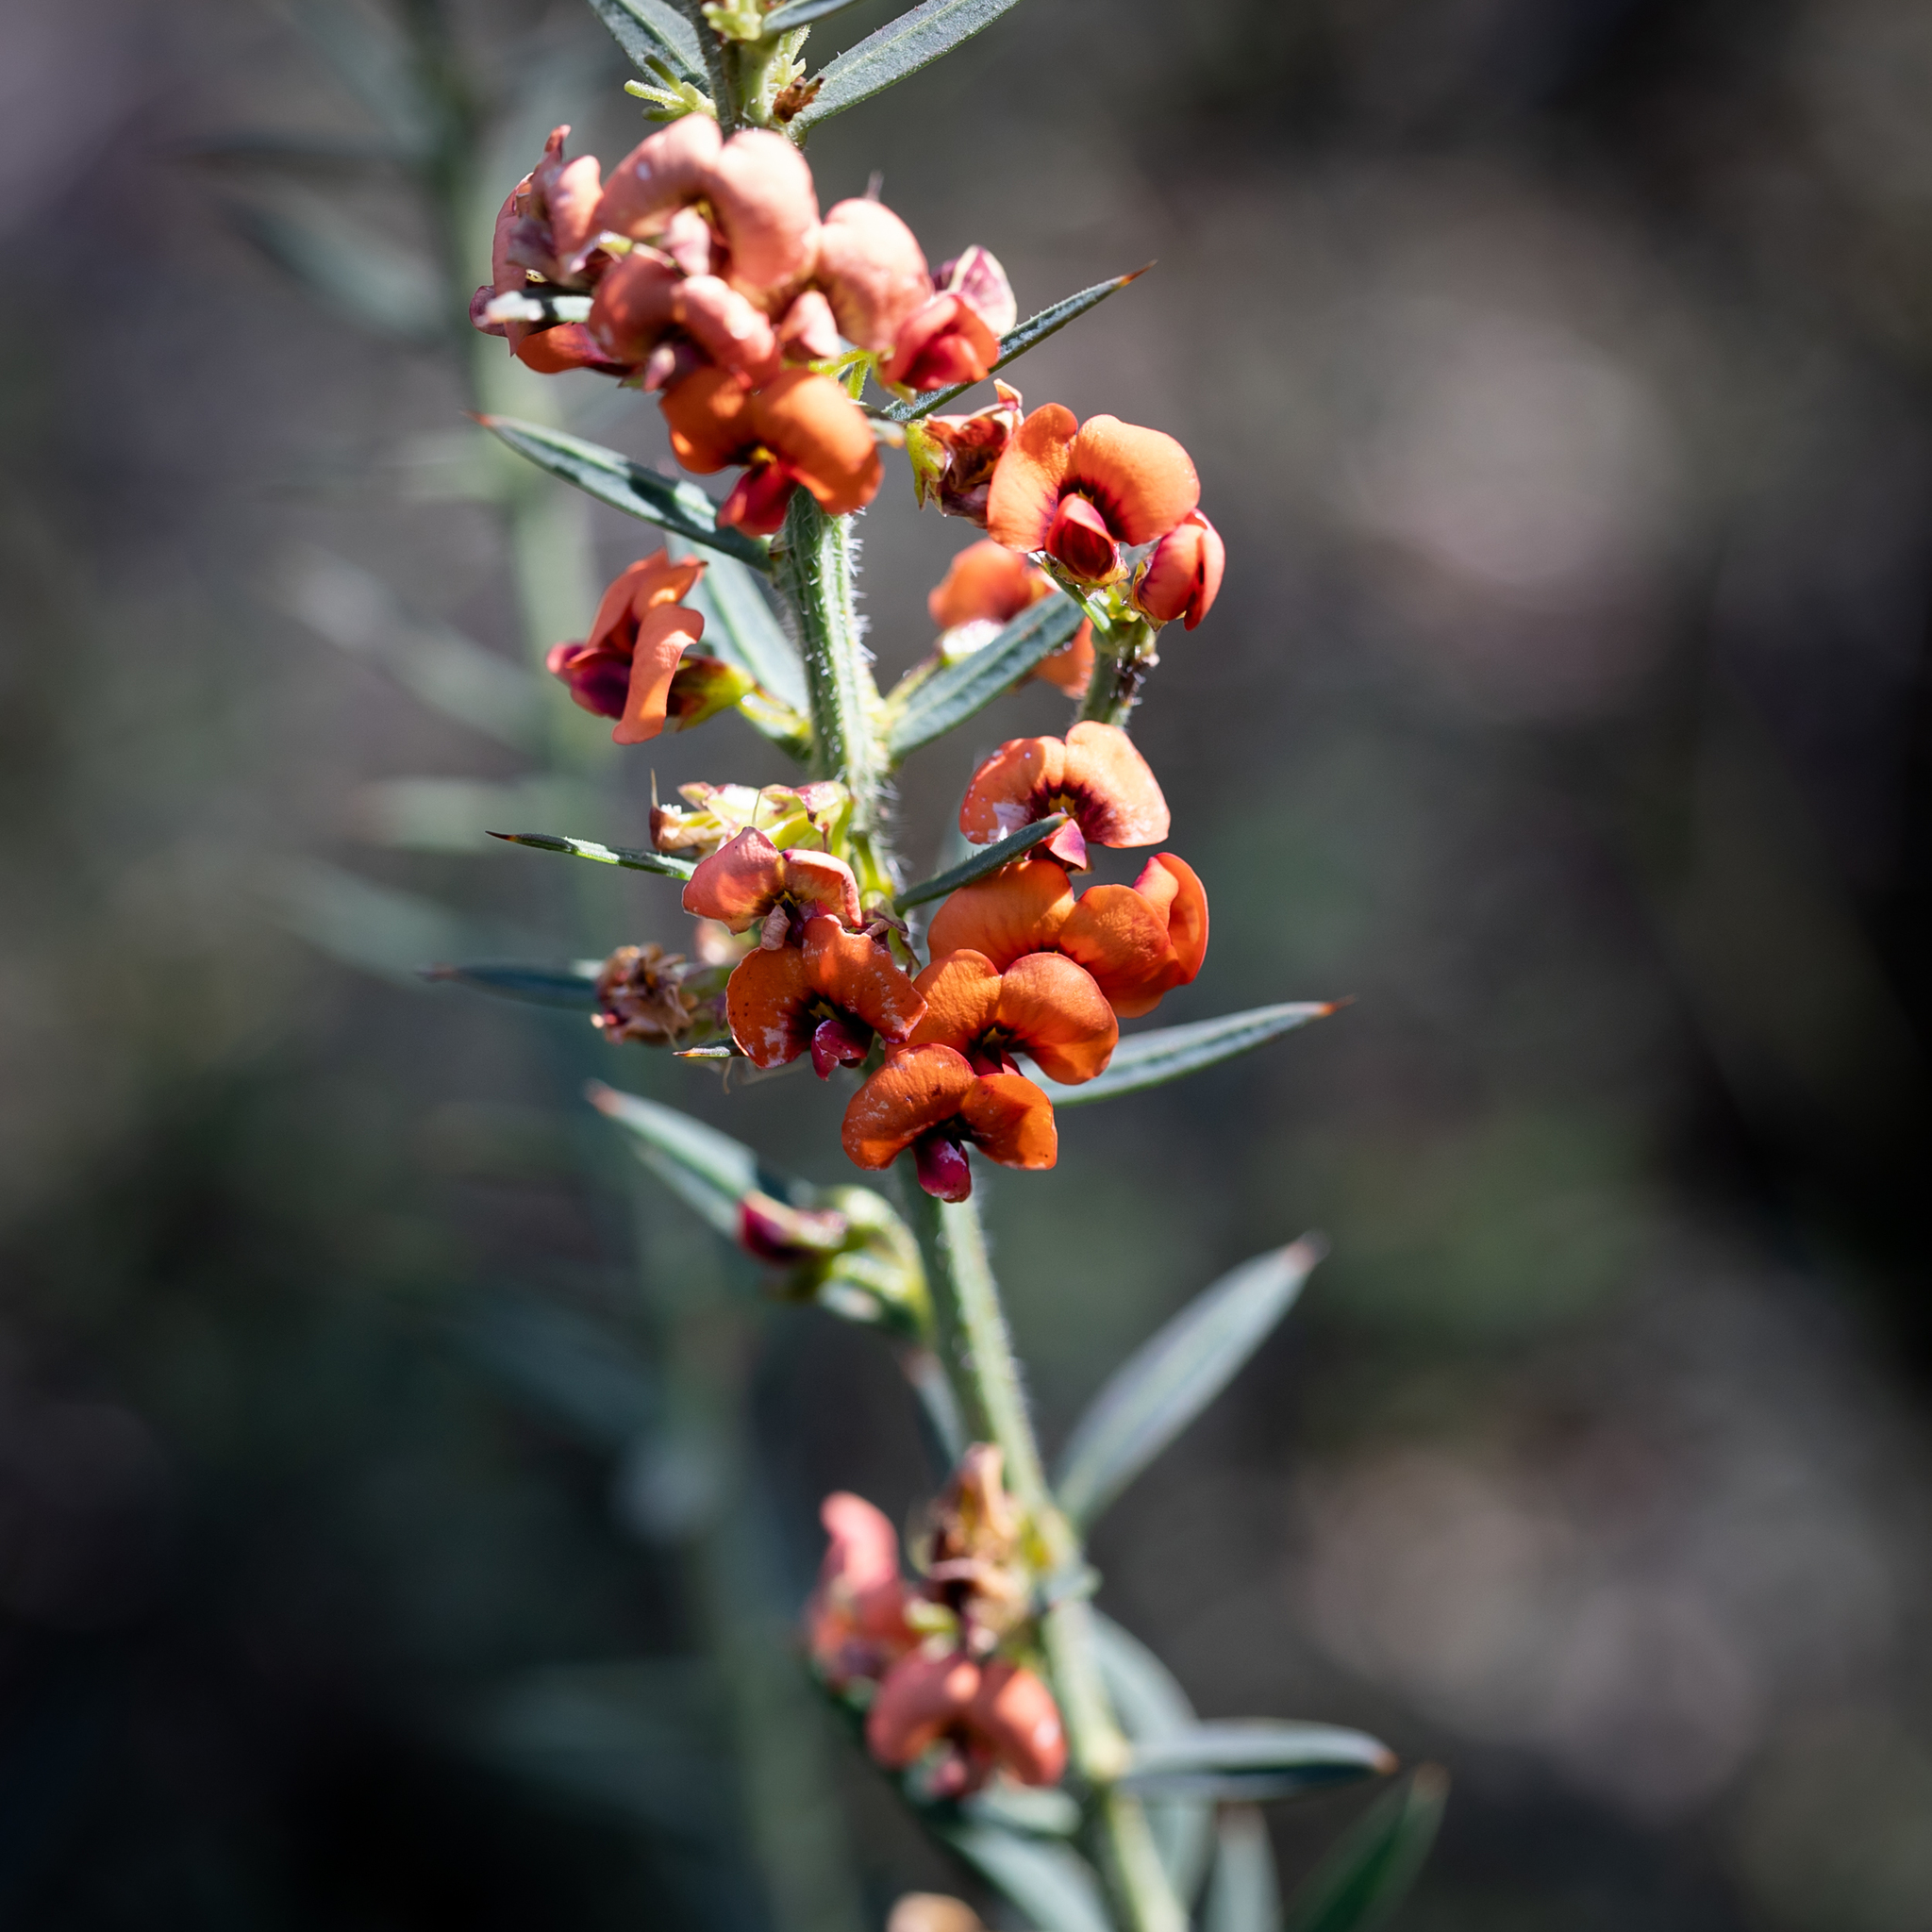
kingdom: Plantae
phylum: Tracheophyta
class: Magnoliopsida
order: Fabales
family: Fabaceae
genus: Daviesia
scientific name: Daviesia ulicifolia
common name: Gorse bitter-pea
